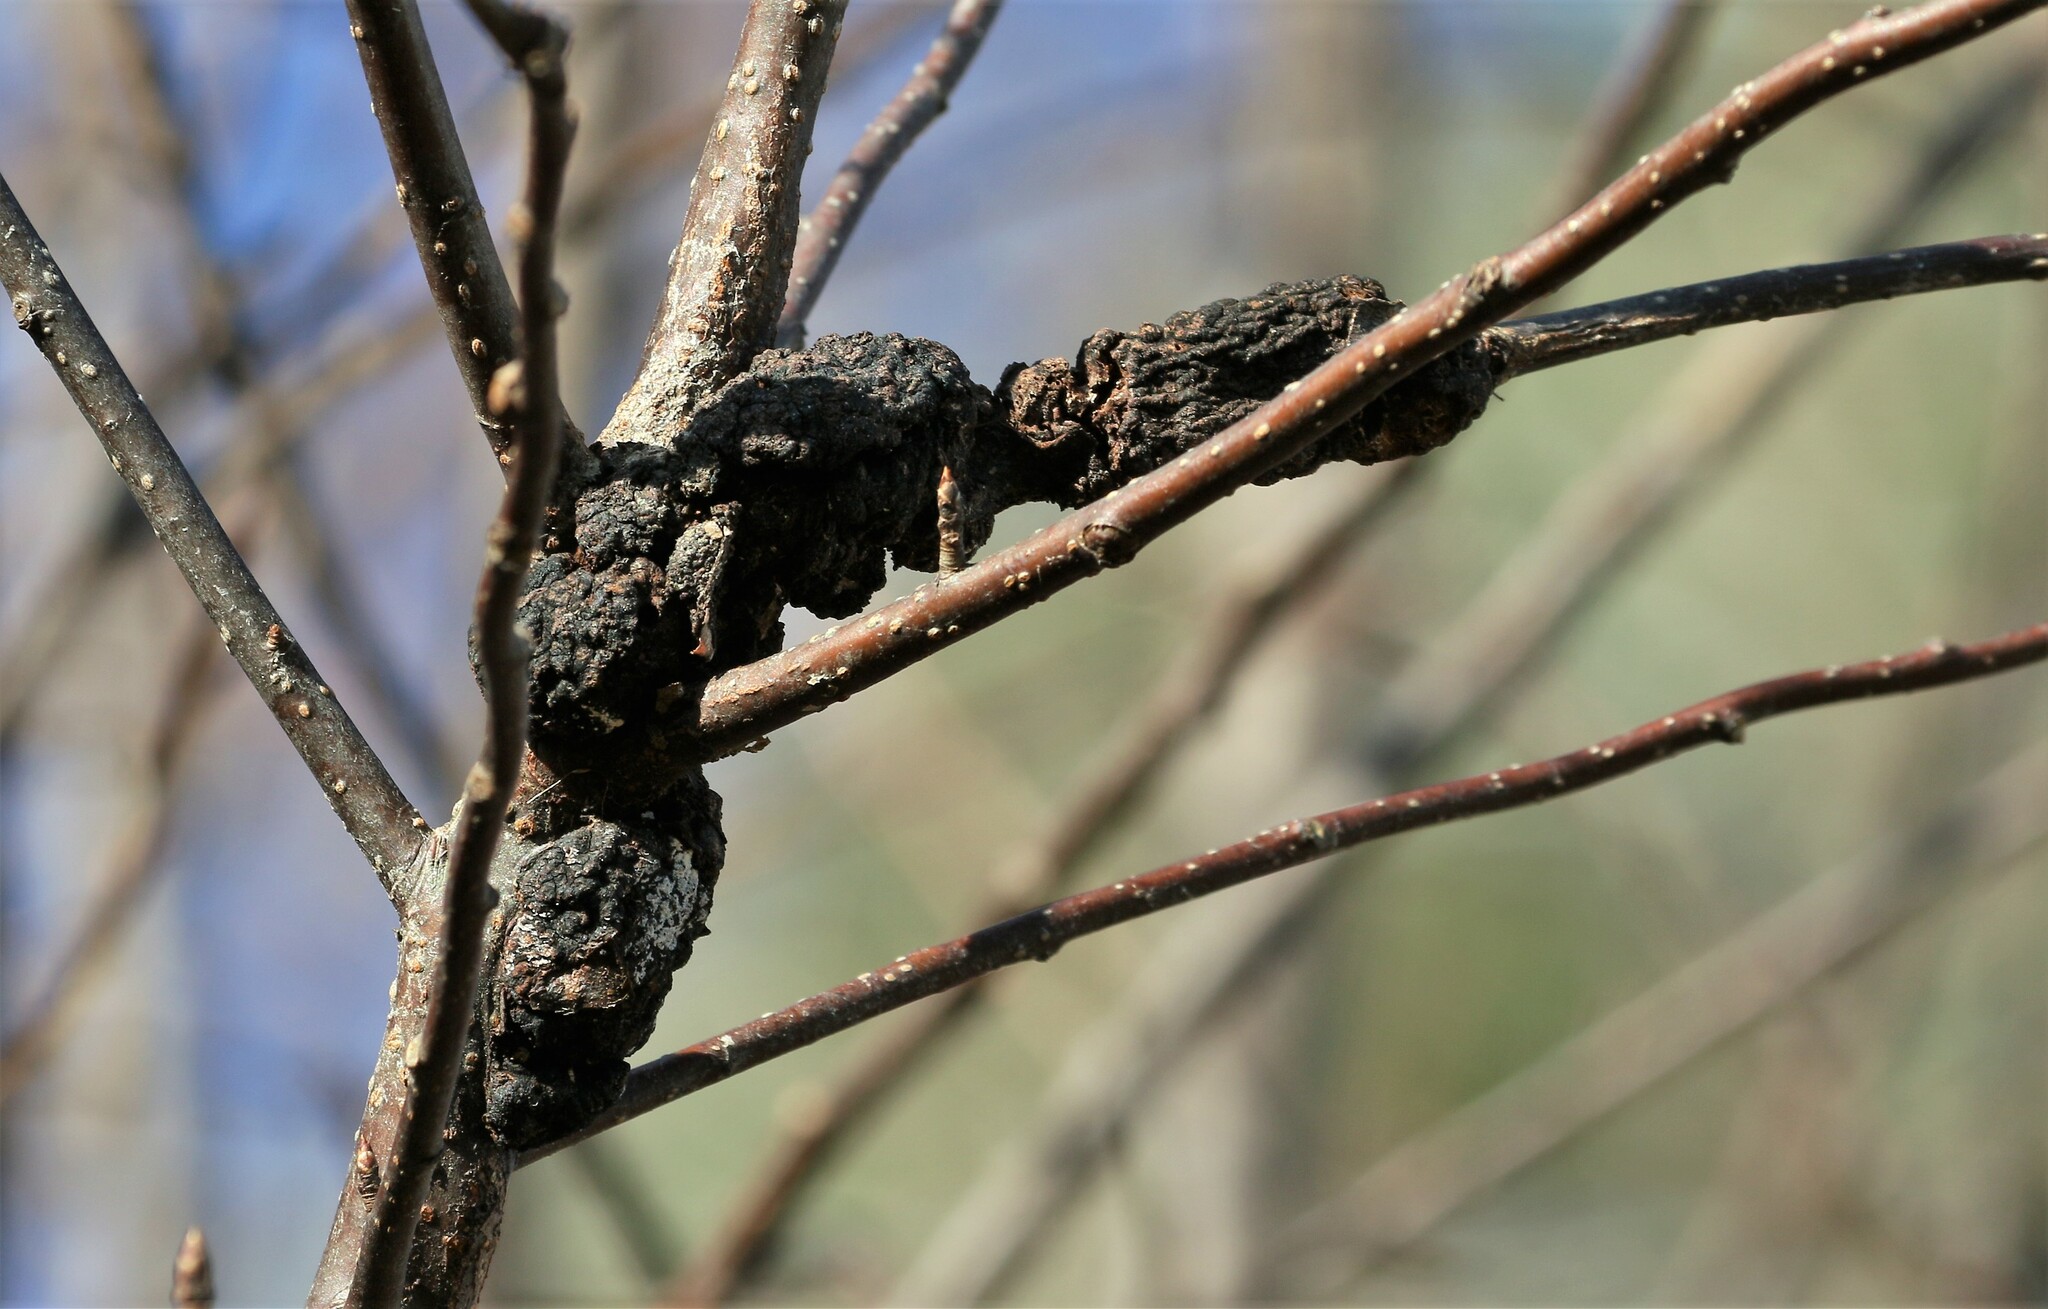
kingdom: Fungi
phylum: Ascomycota
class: Dothideomycetes
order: Venturiales
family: Venturiaceae
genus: Apiosporina
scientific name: Apiosporina morbosa
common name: Black knot
